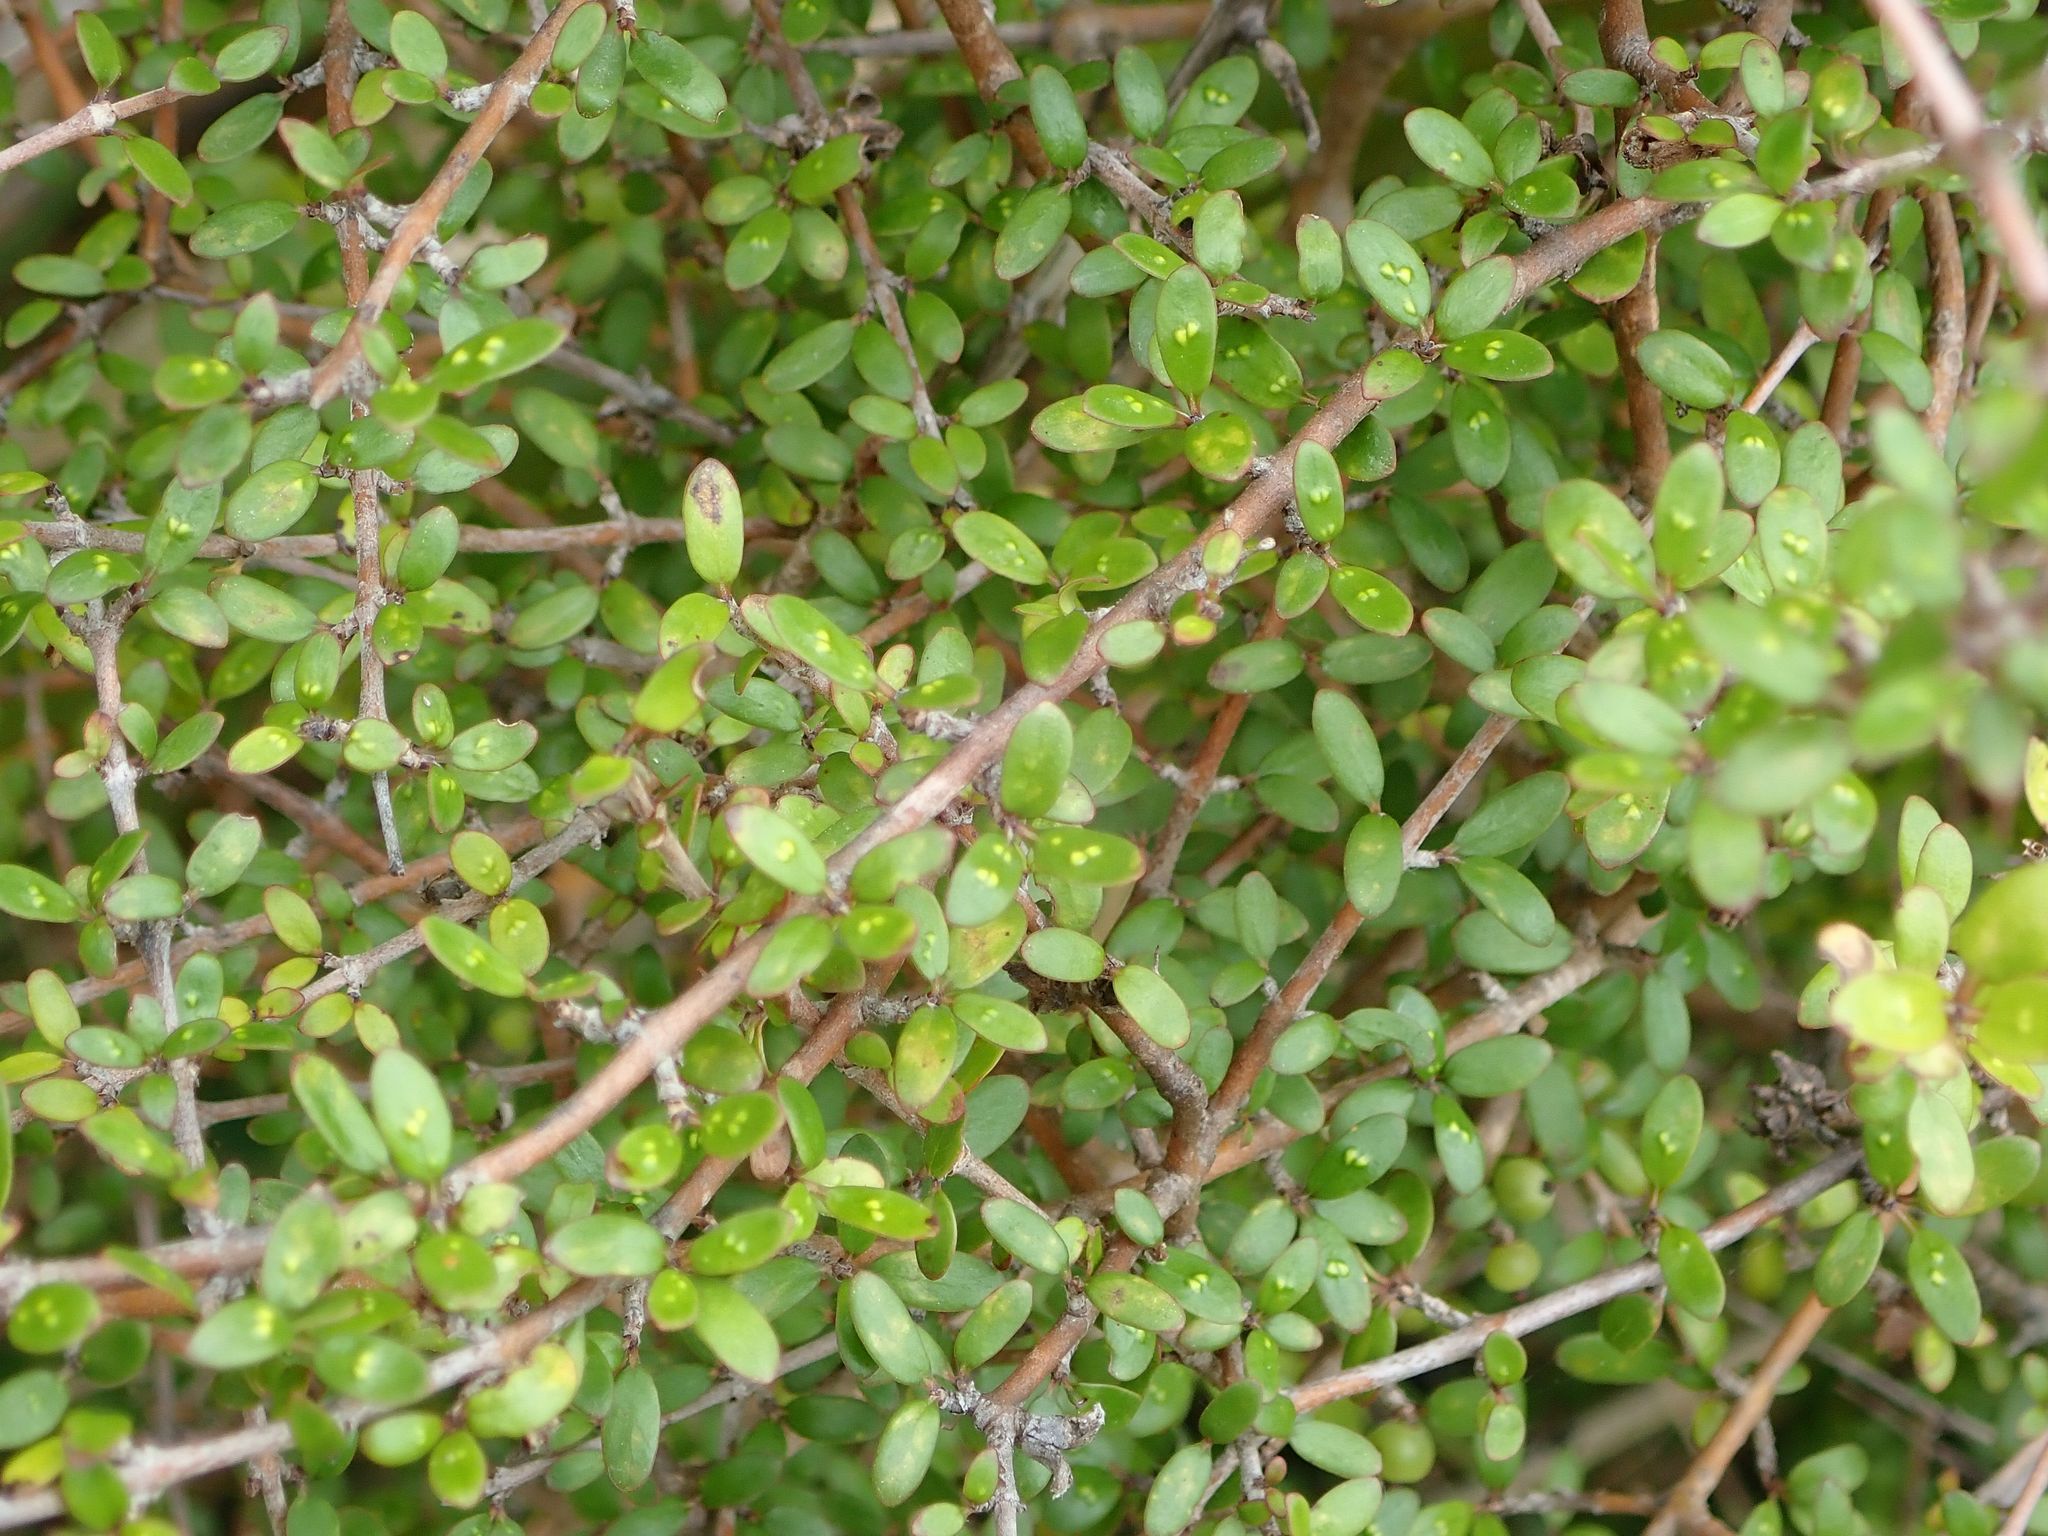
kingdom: Plantae
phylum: Tracheophyta
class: Magnoliopsida
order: Gentianales
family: Rubiaceae
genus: Coprosma
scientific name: Coprosma propinqua
